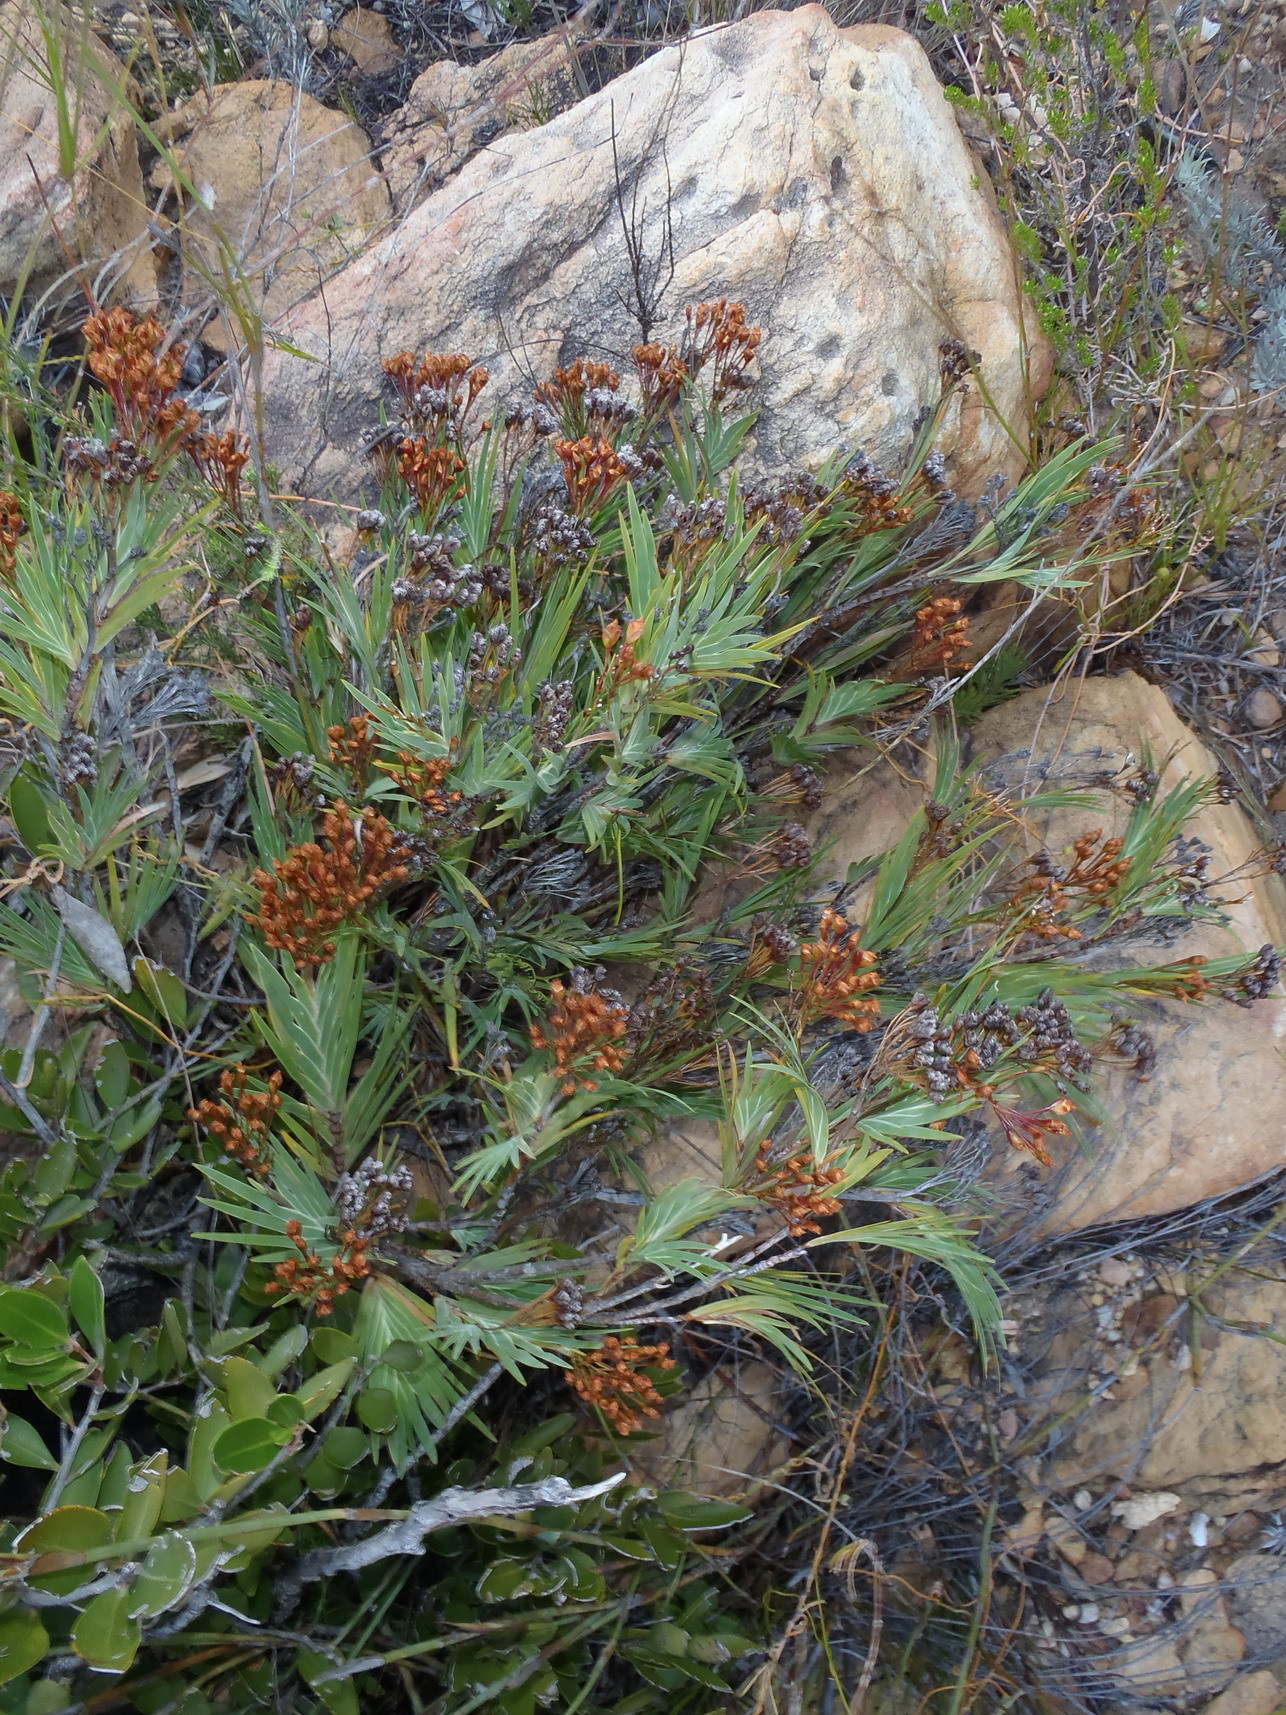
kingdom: Plantae
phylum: Tracheophyta
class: Liliopsida
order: Asparagales
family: Iridaceae
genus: Nivenia
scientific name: Nivenia binata
